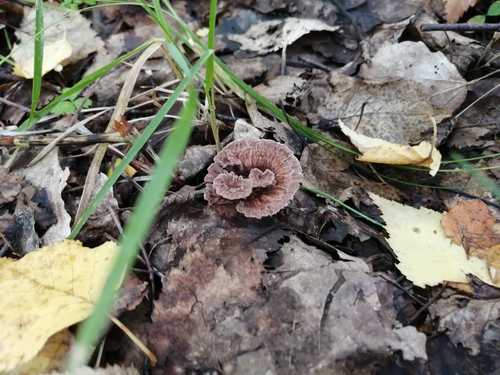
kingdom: Fungi
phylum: Basidiomycota
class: Agaricomycetes
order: Thelephorales
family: Thelephoraceae
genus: Thelephora
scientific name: Thelephora terrestris
